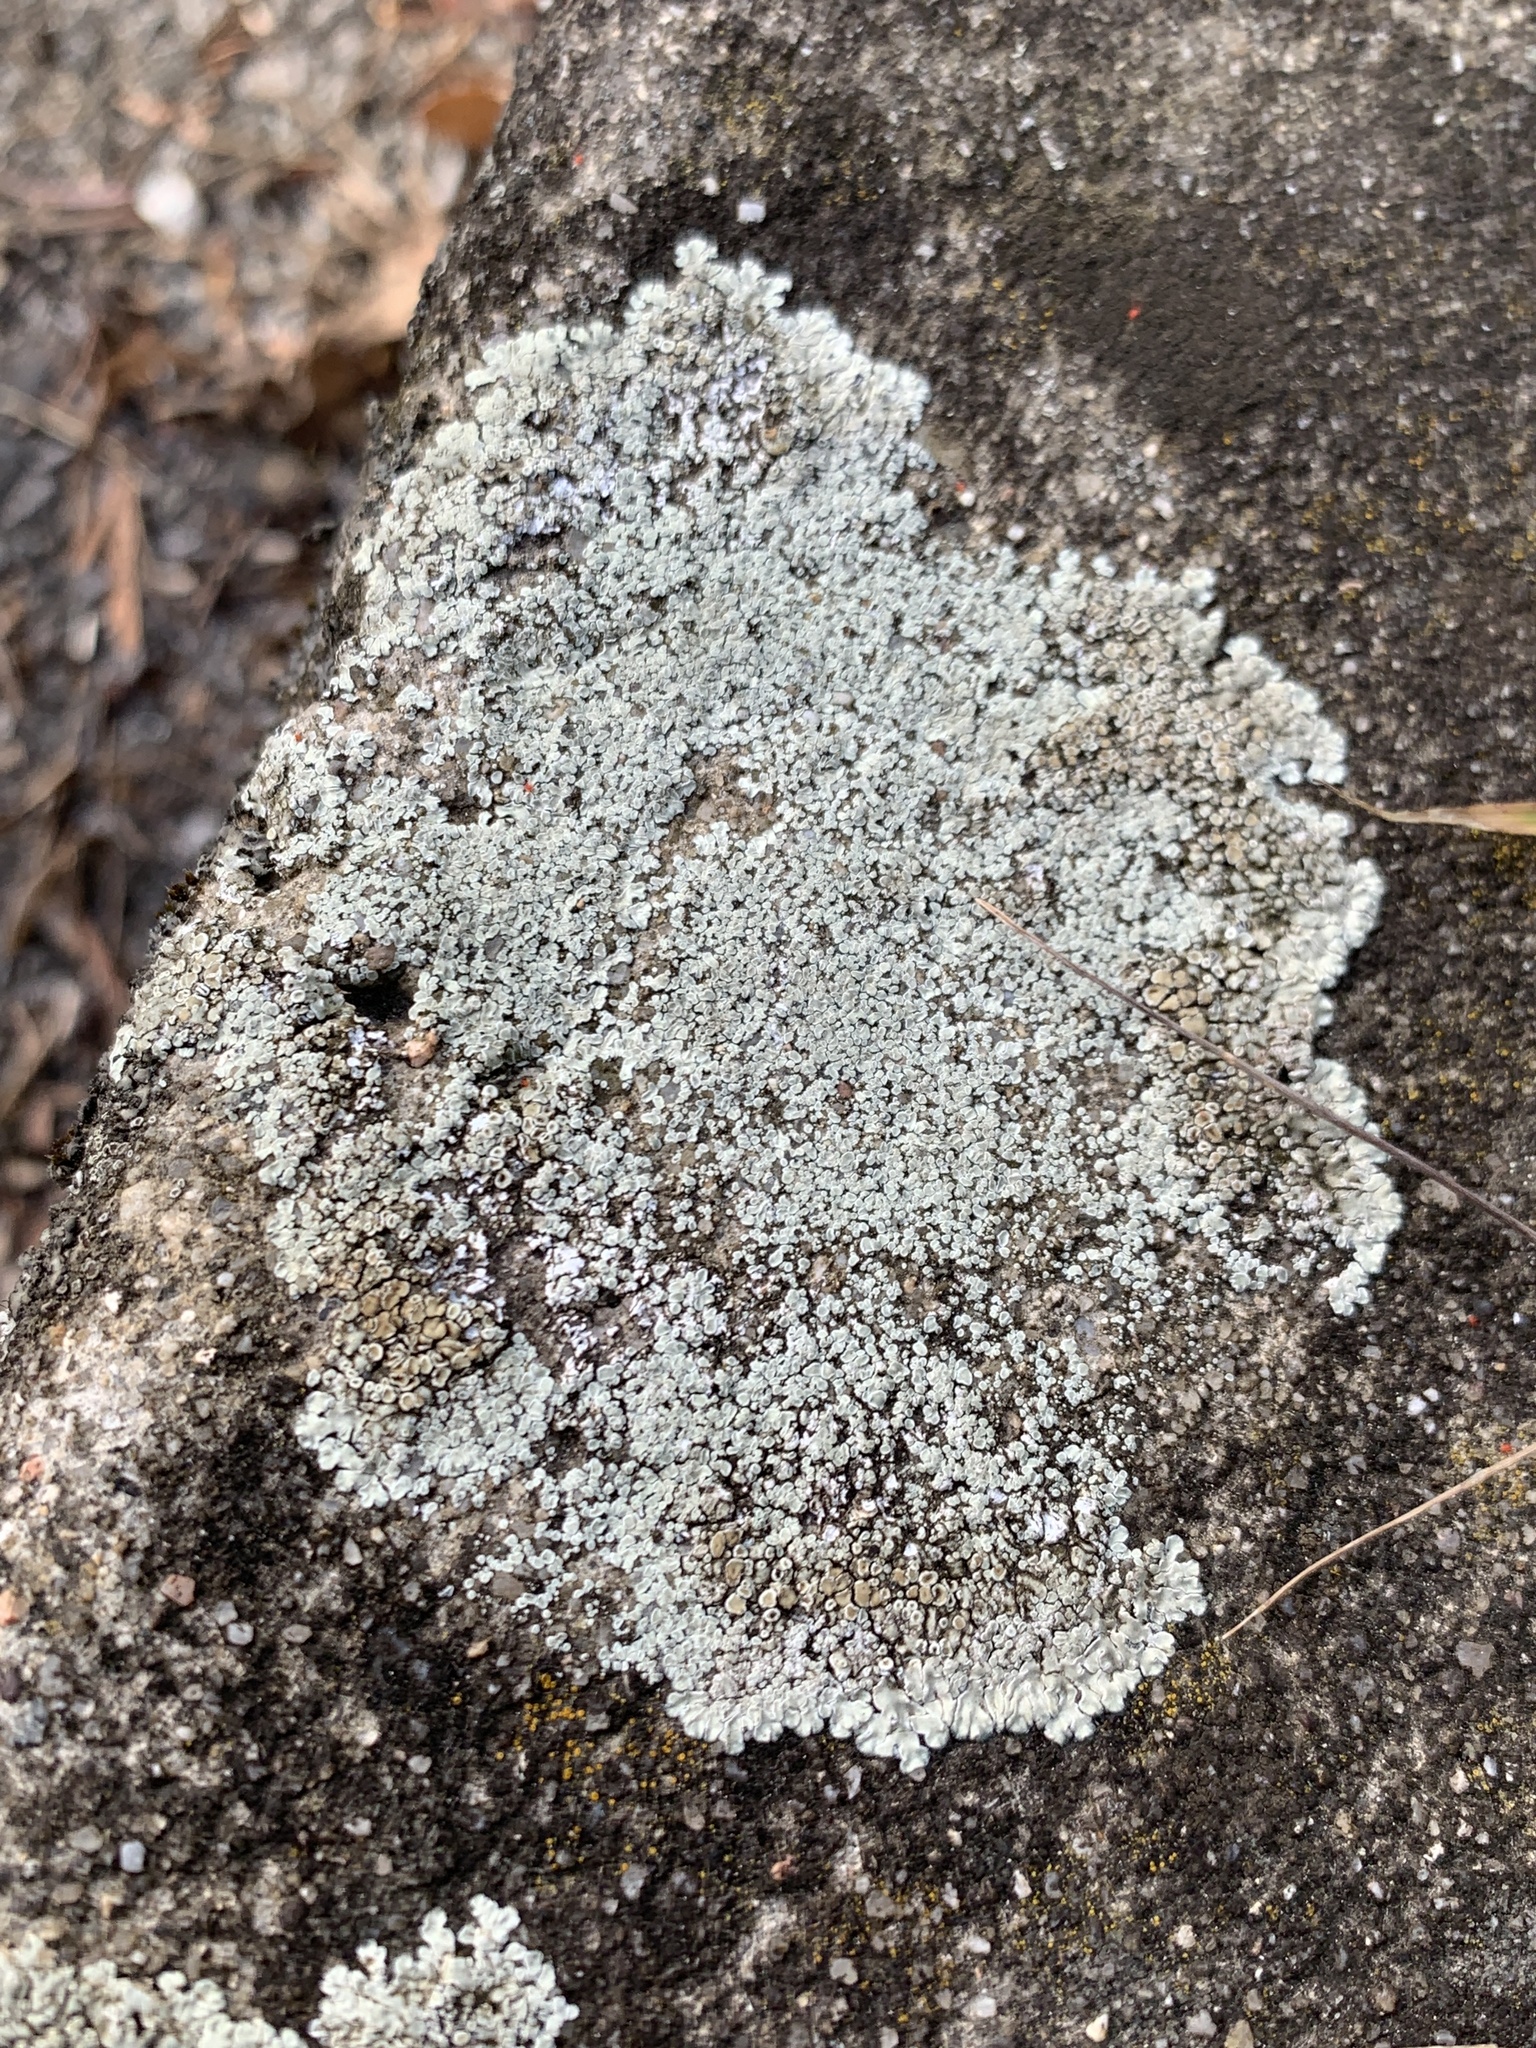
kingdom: Fungi
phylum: Ascomycota
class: Lecanoromycetes
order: Lecanorales
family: Lecanoraceae
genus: Protoparmeliopsis
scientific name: Protoparmeliopsis muralis
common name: Stonewall rim lichen
